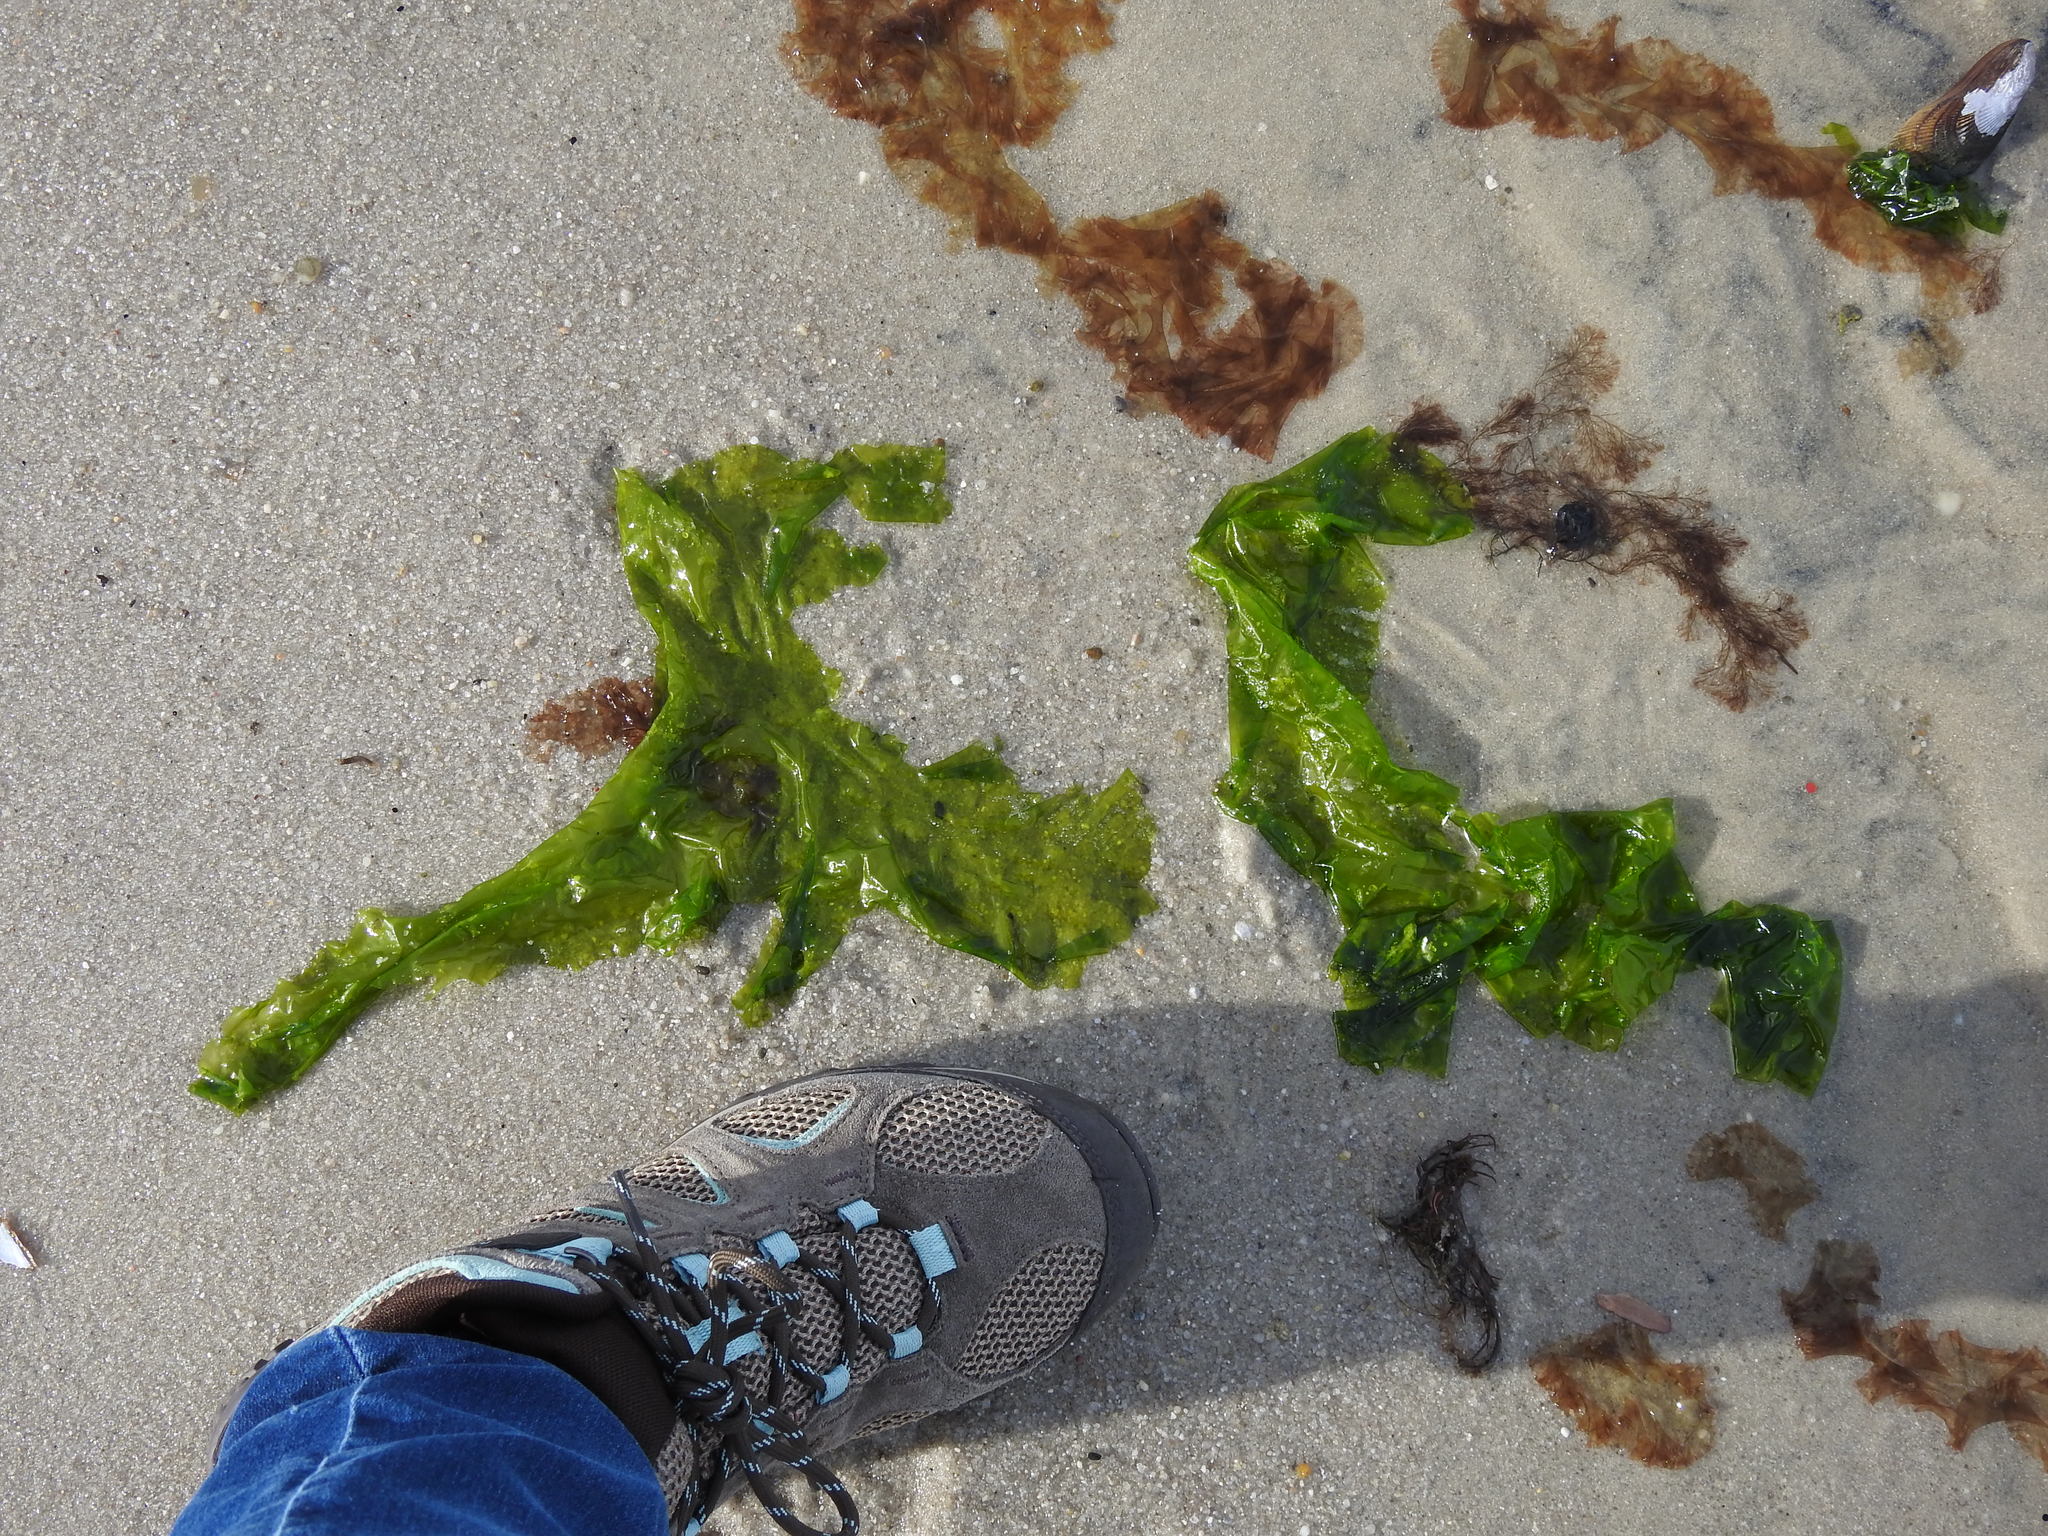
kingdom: Plantae
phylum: Chlorophyta
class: Ulvophyceae
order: Ulvales
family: Ulvaceae
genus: Ulva
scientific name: Ulva lactuca
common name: Sea lettuce
